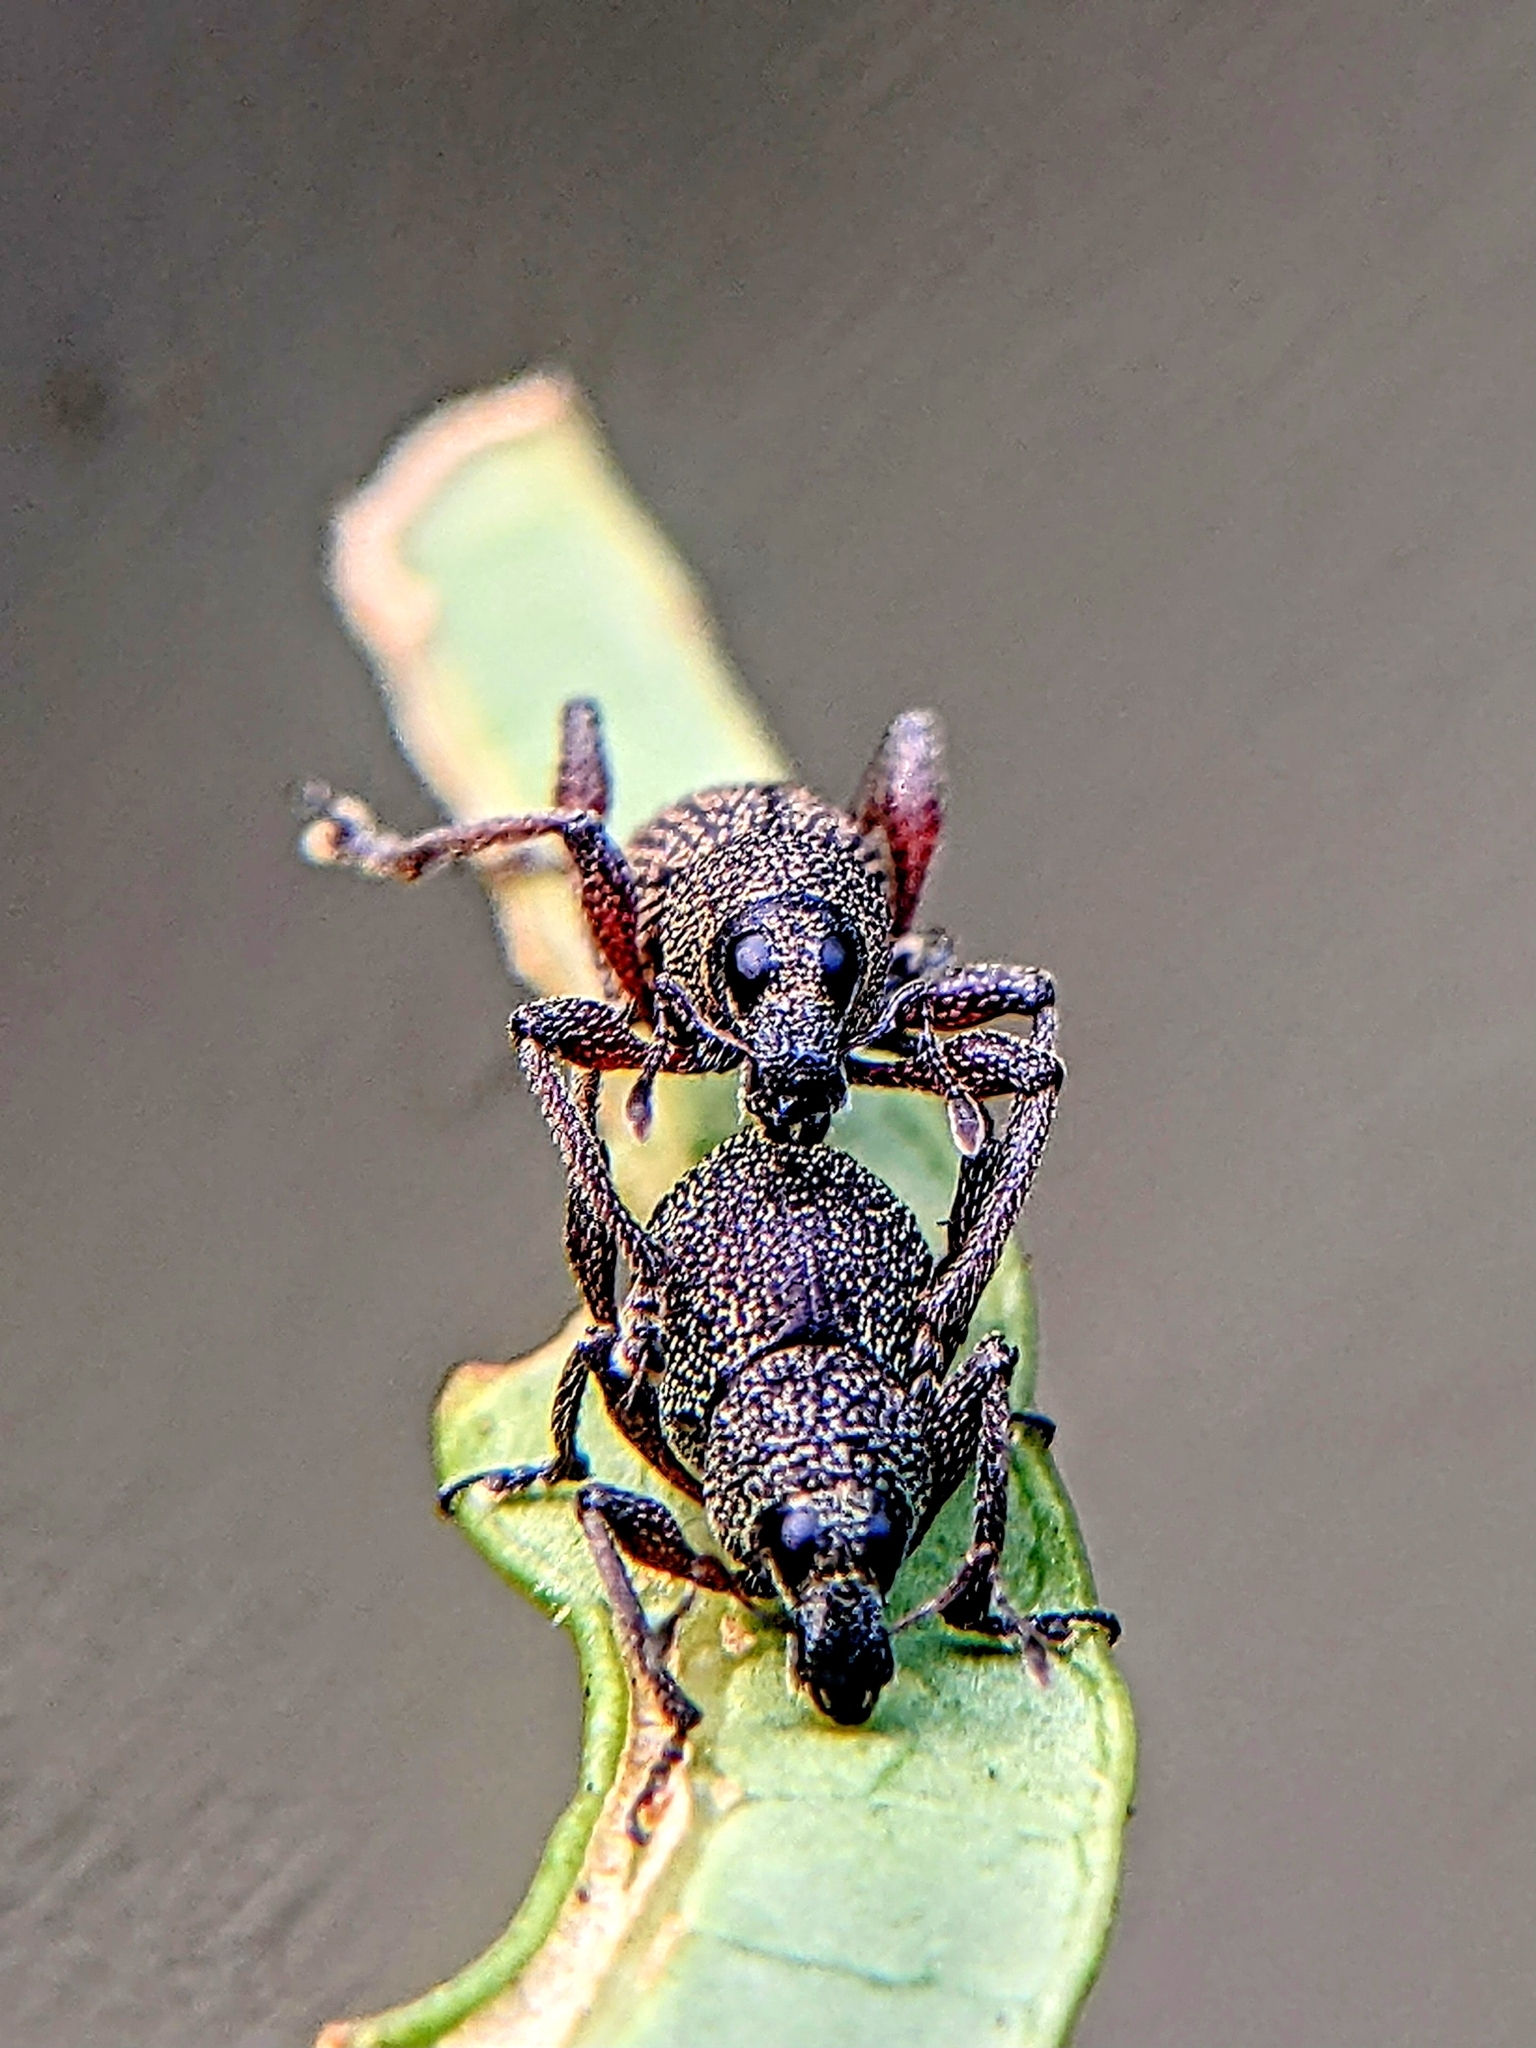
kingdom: Animalia
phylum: Arthropoda
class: Insecta
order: Coleoptera
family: Curculionidae
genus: Metapocyrtus
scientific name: Metapocyrtus adspersus
